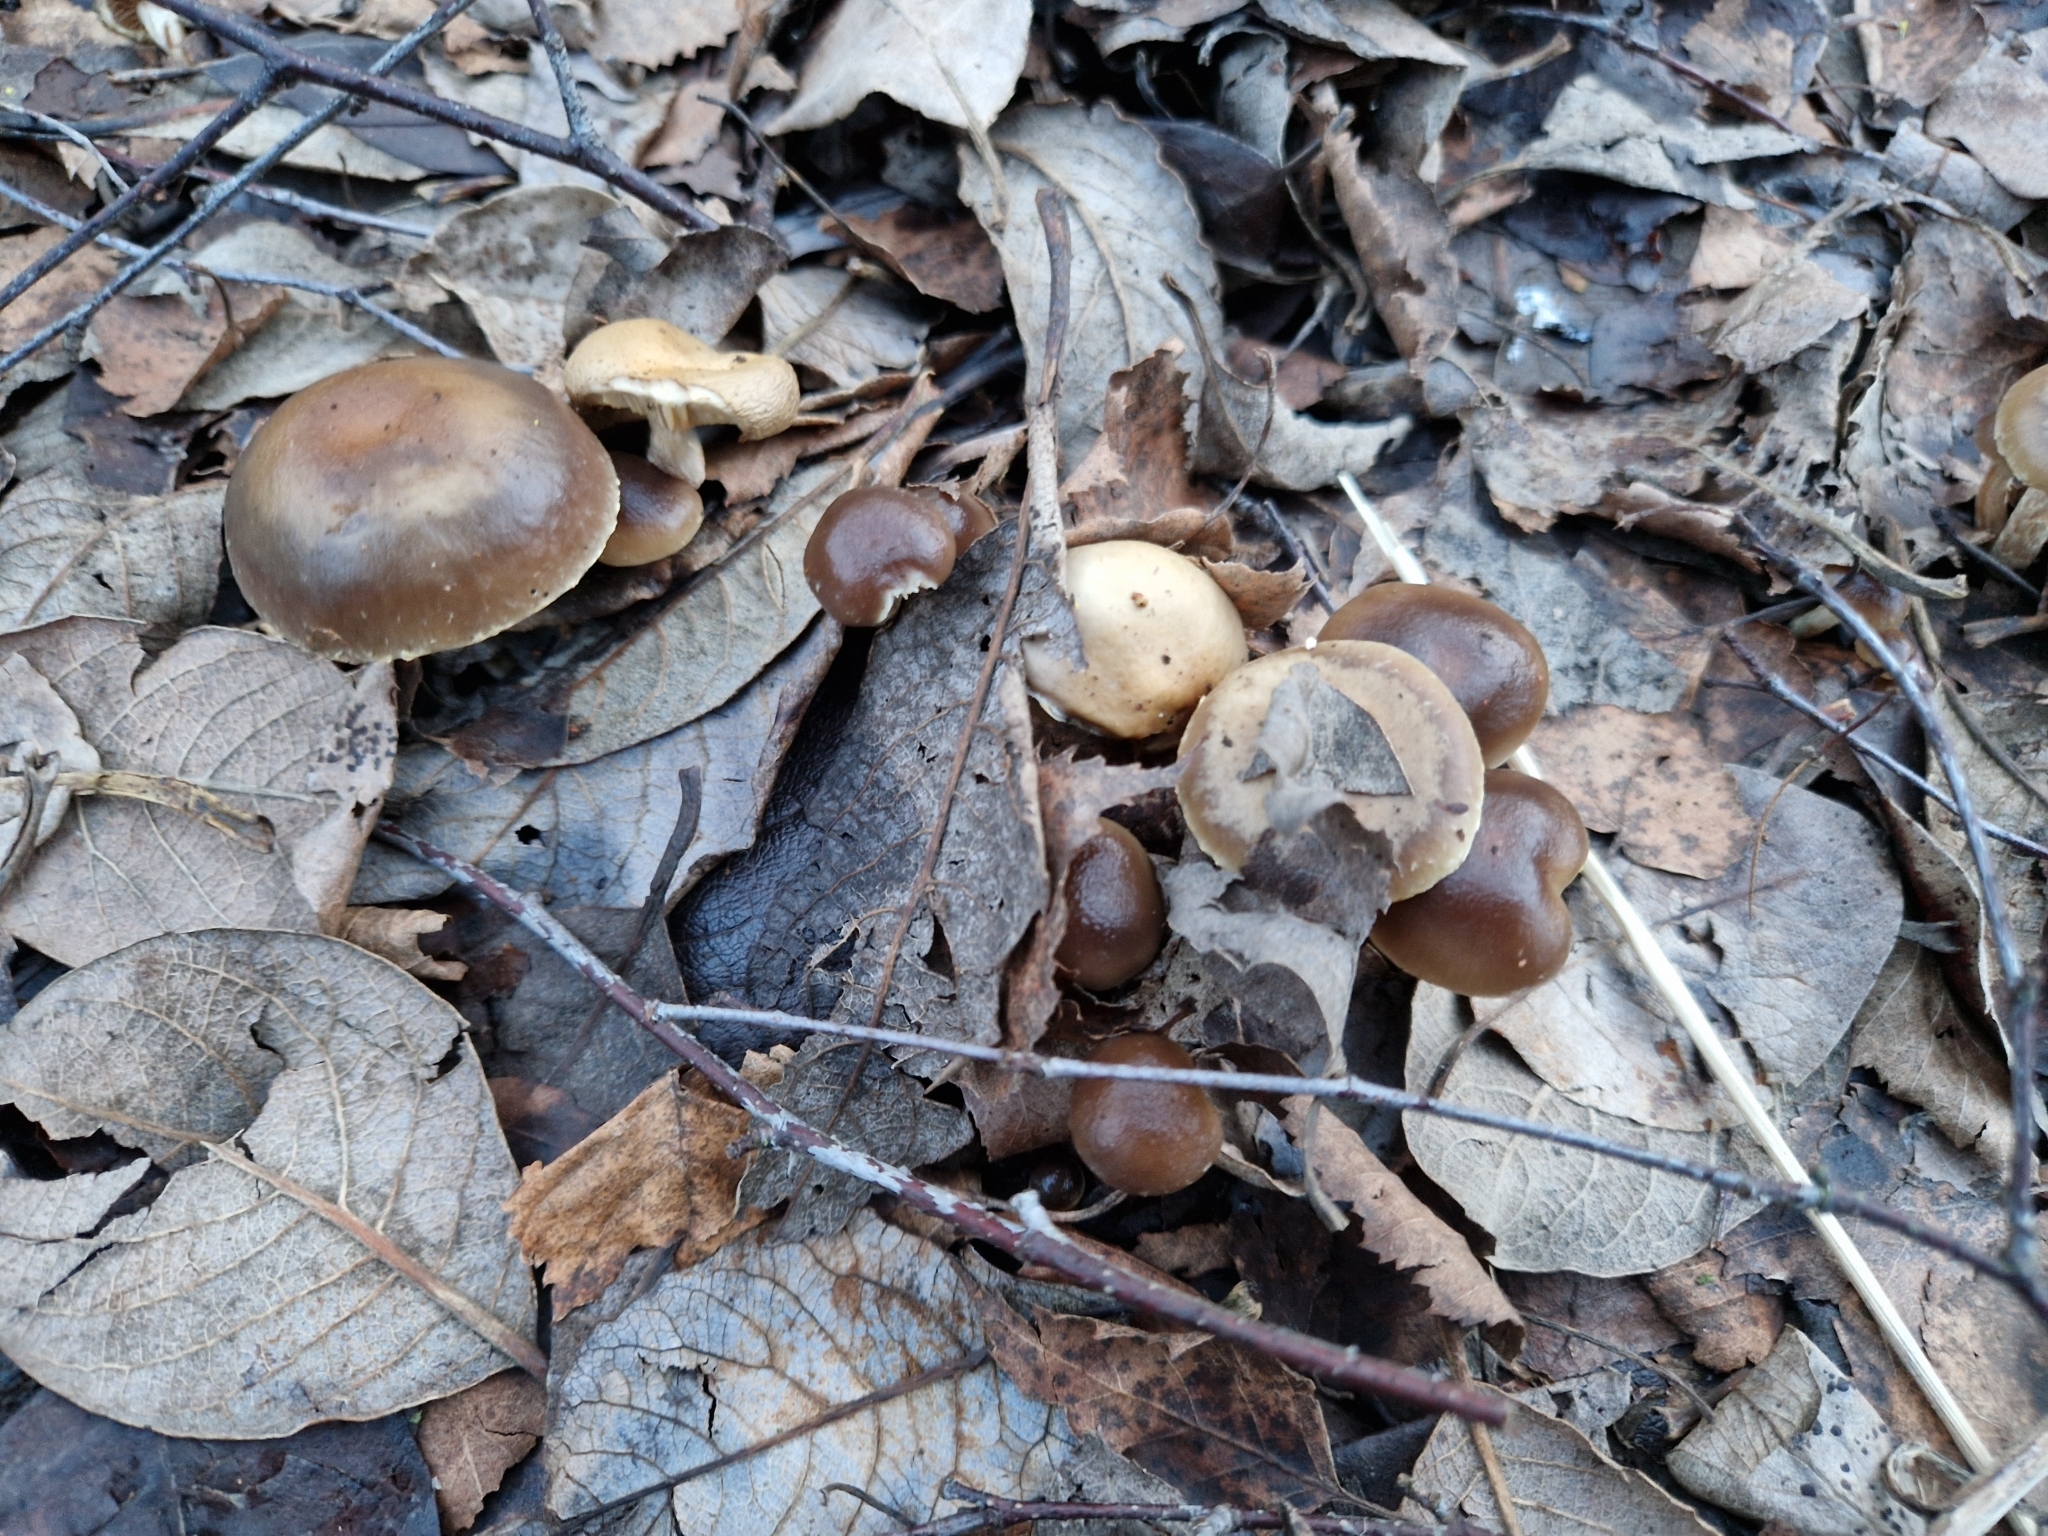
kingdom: Fungi
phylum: Basidiomycota
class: Agaricomycetes
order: Agaricales
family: Strophariaceae
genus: Meottomyces
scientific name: Meottomyces dissimulans
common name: Winter brownie
